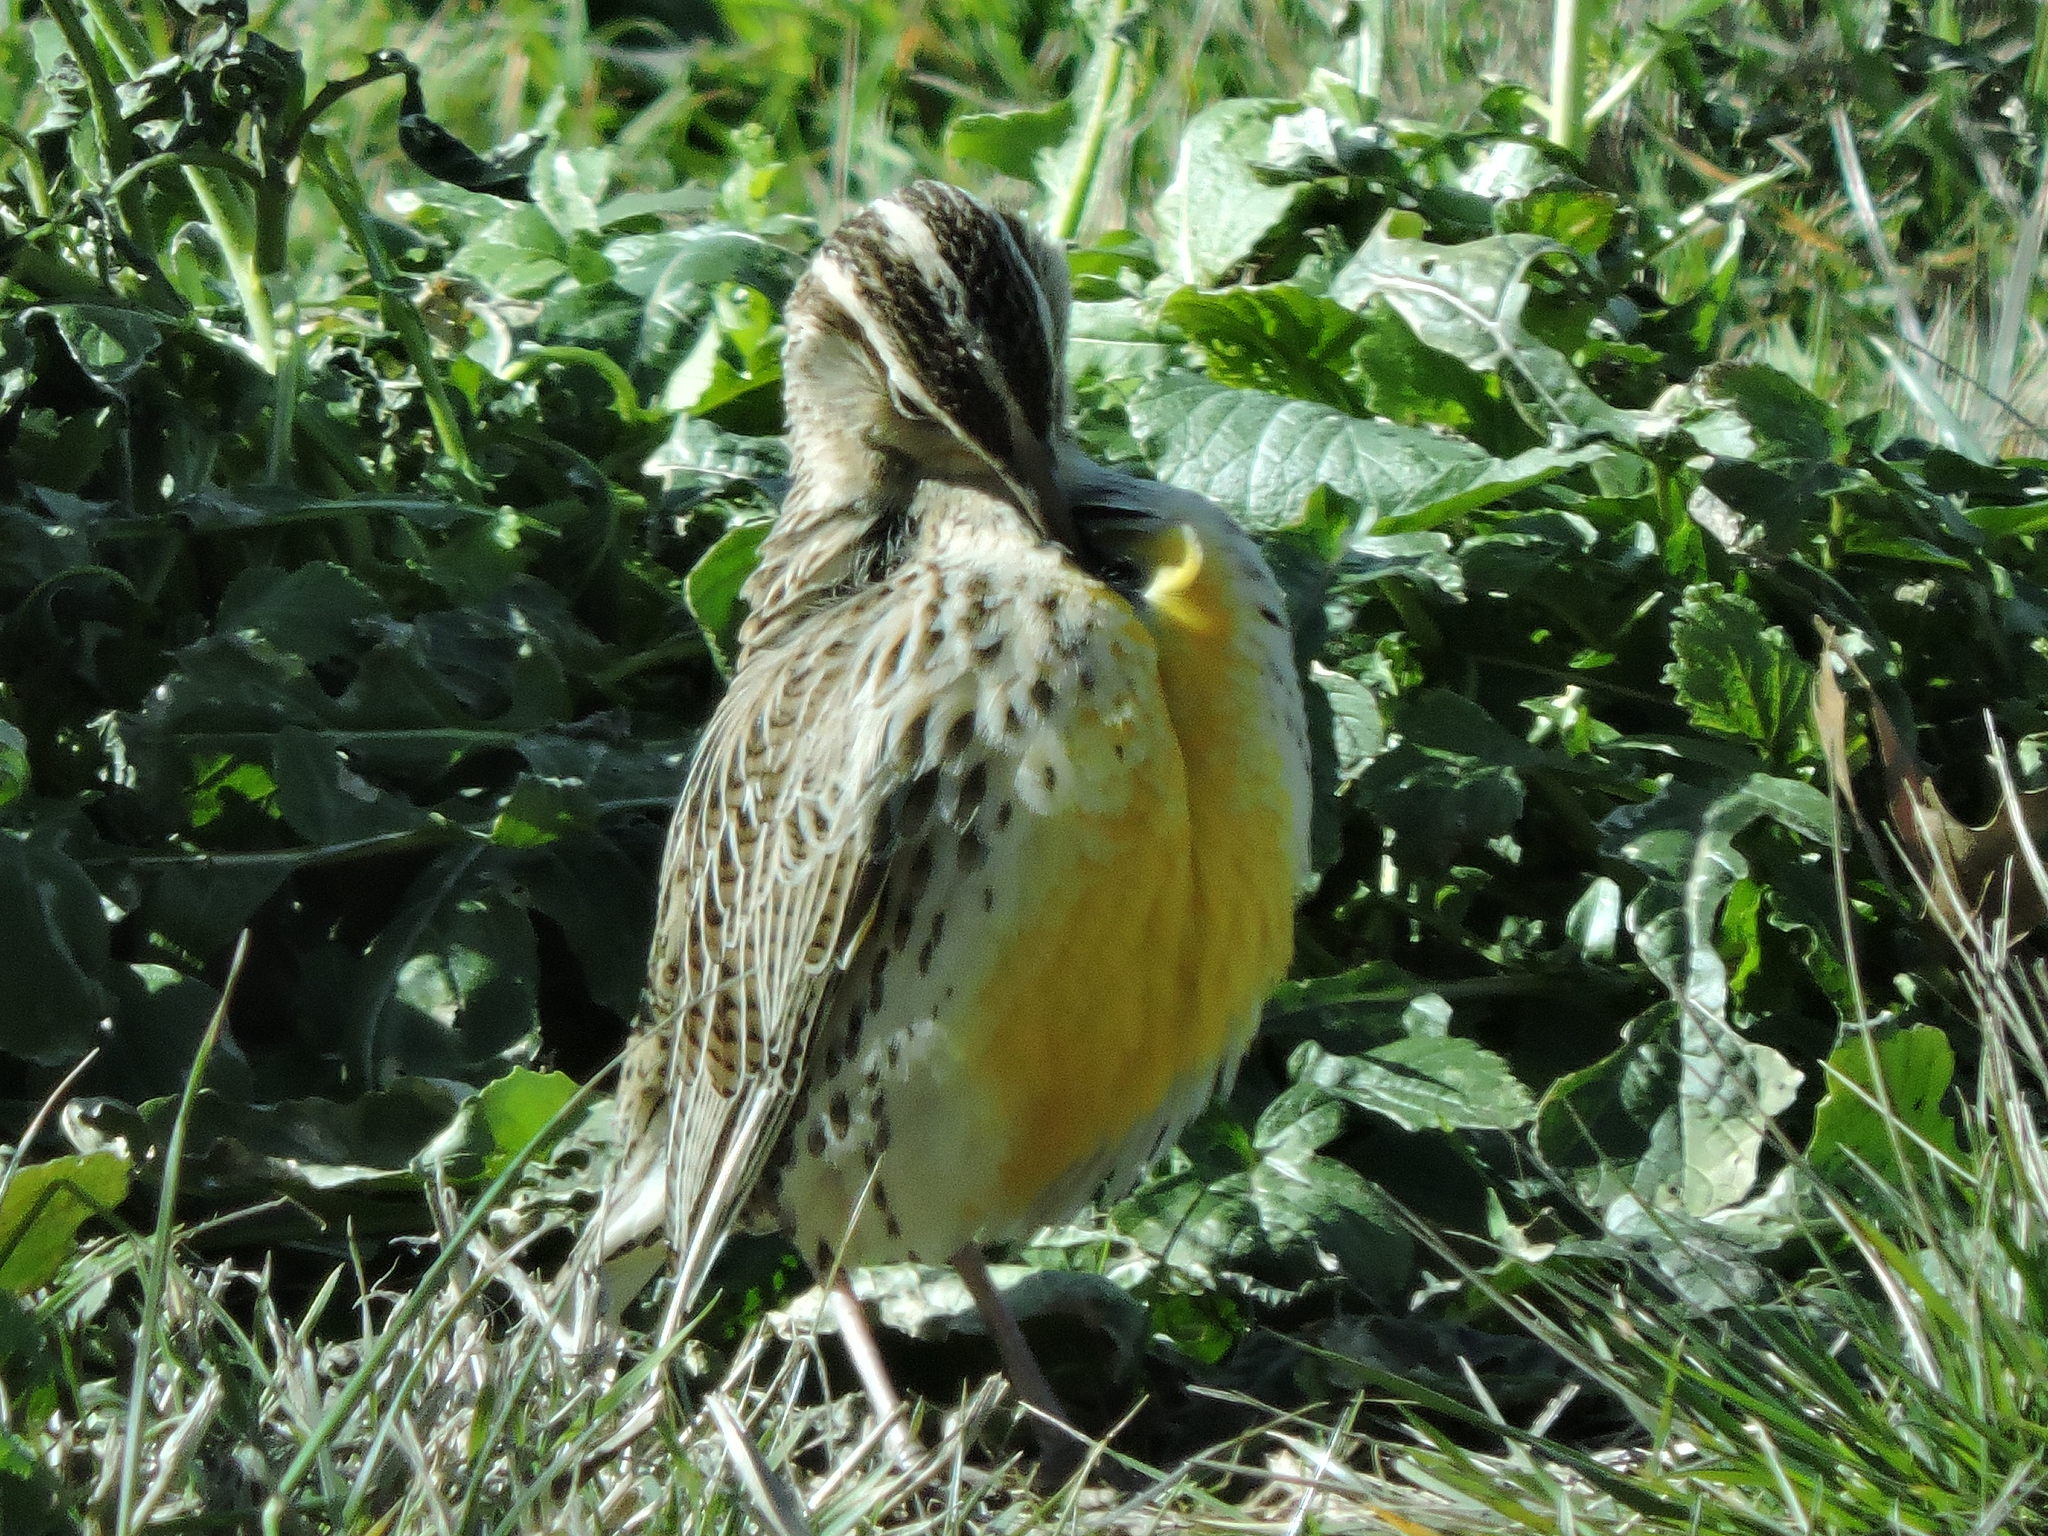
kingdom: Animalia
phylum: Chordata
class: Aves
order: Passeriformes
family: Icteridae
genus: Sturnella
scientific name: Sturnella magna
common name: Eastern meadowlark
